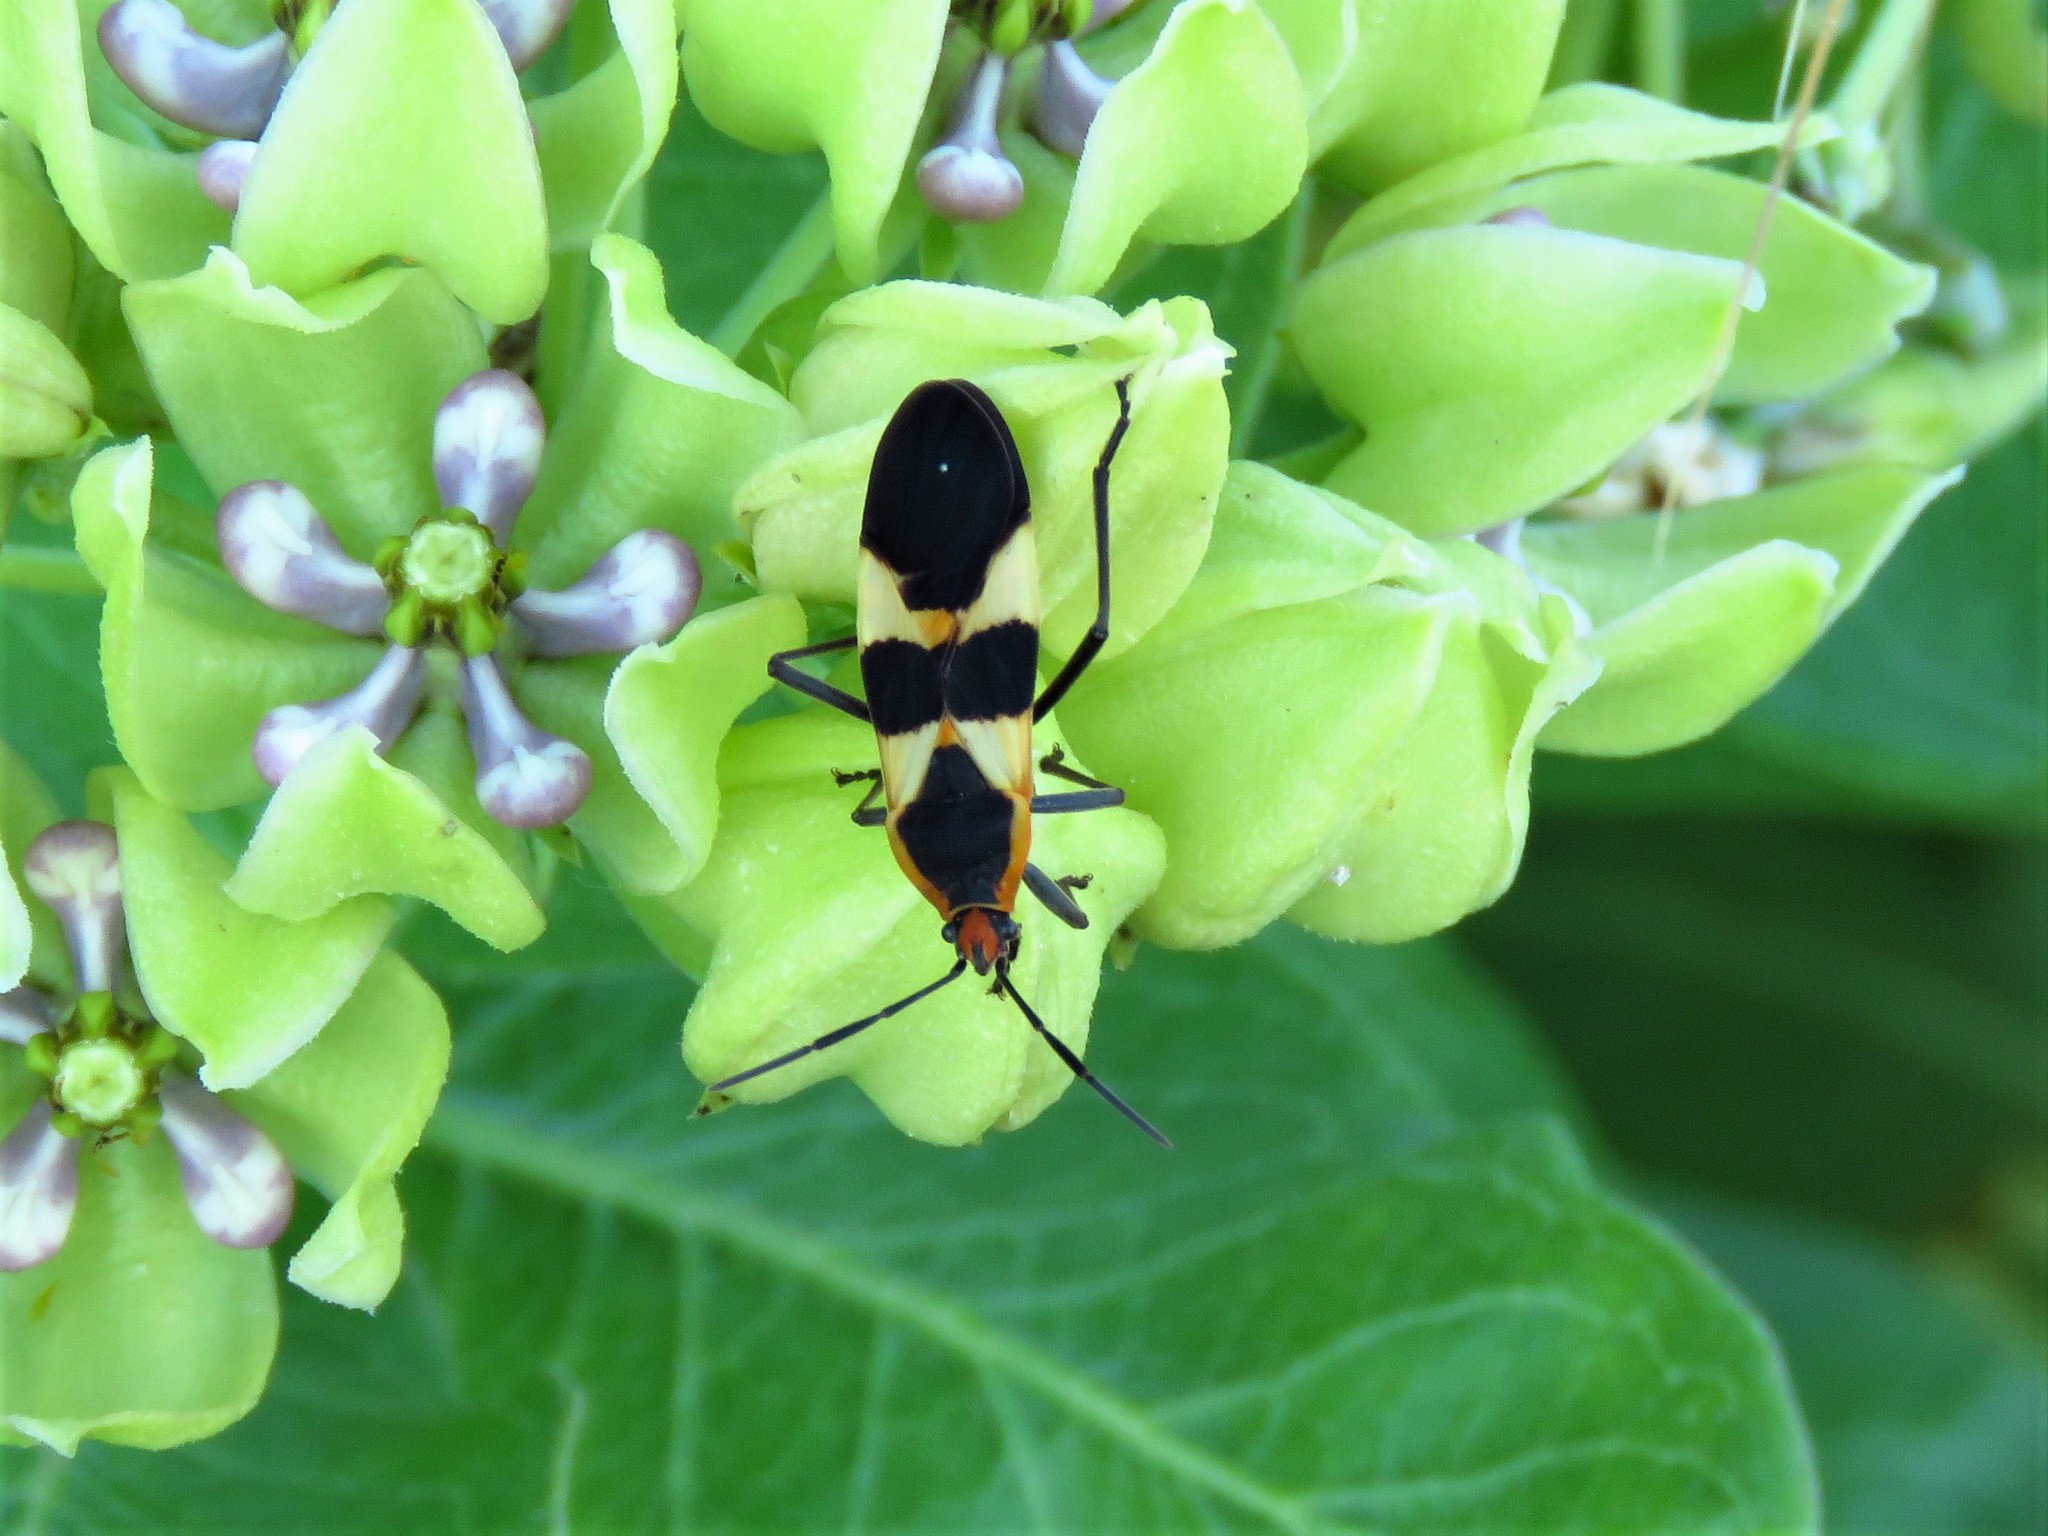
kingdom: Animalia
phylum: Arthropoda
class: Insecta
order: Hemiptera
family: Lygaeidae
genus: Oncopeltus
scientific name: Oncopeltus fasciatus
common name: Large milkweed bug
